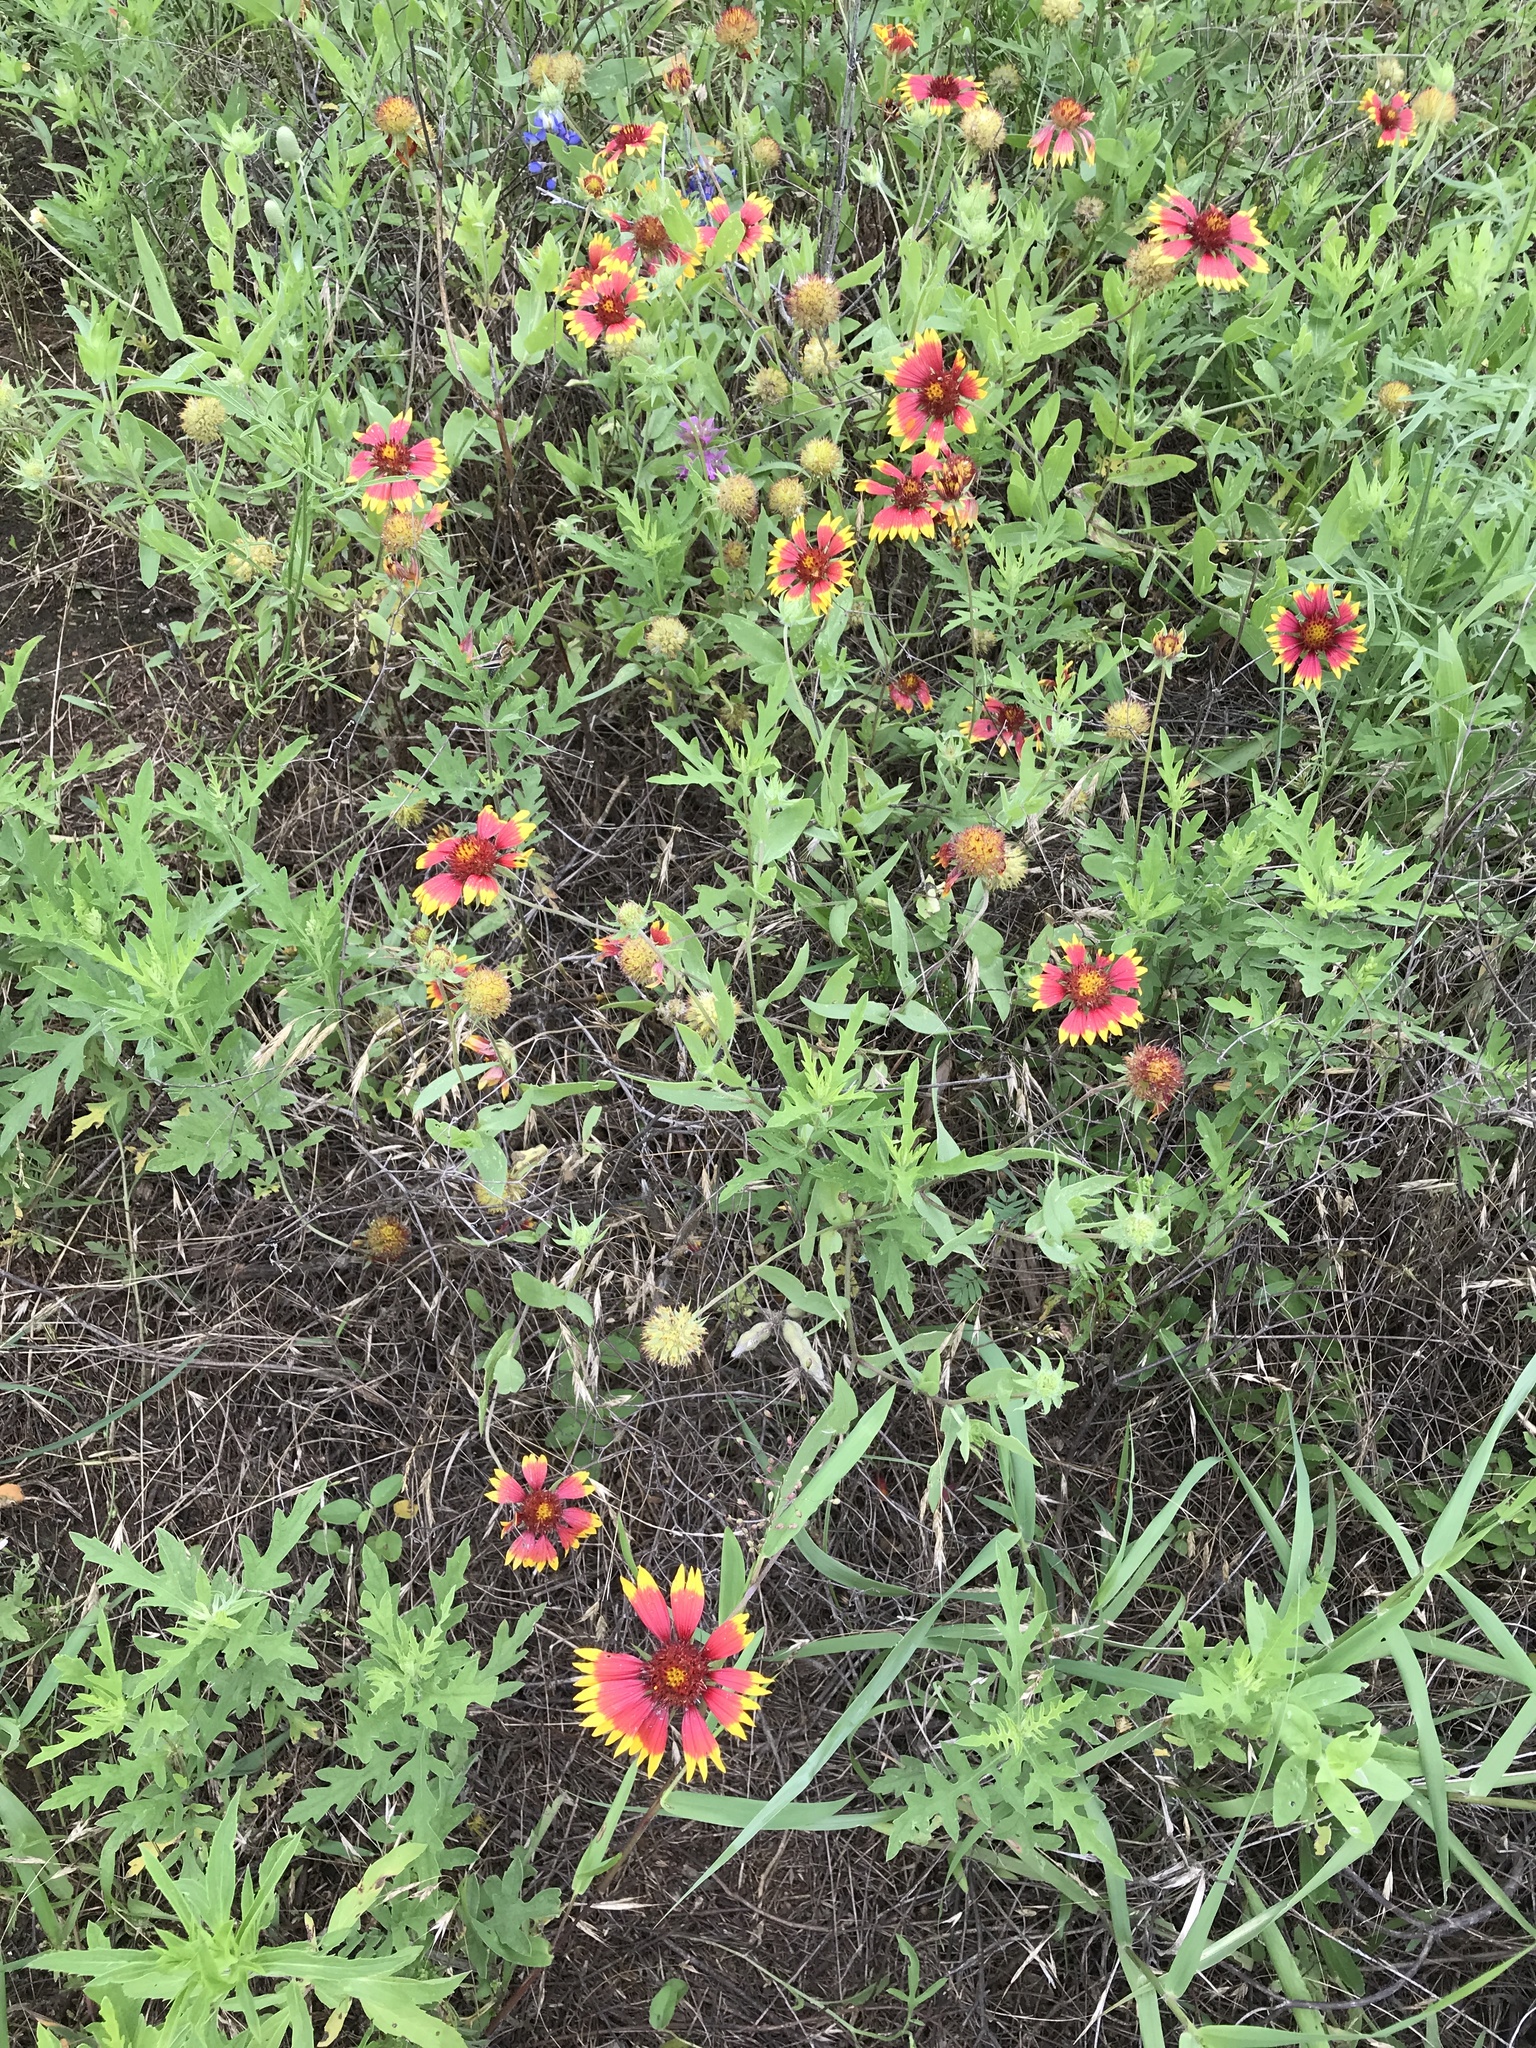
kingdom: Plantae
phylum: Tracheophyta
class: Magnoliopsida
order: Asterales
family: Asteraceae
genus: Gaillardia
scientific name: Gaillardia pulchella
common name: Firewheel
